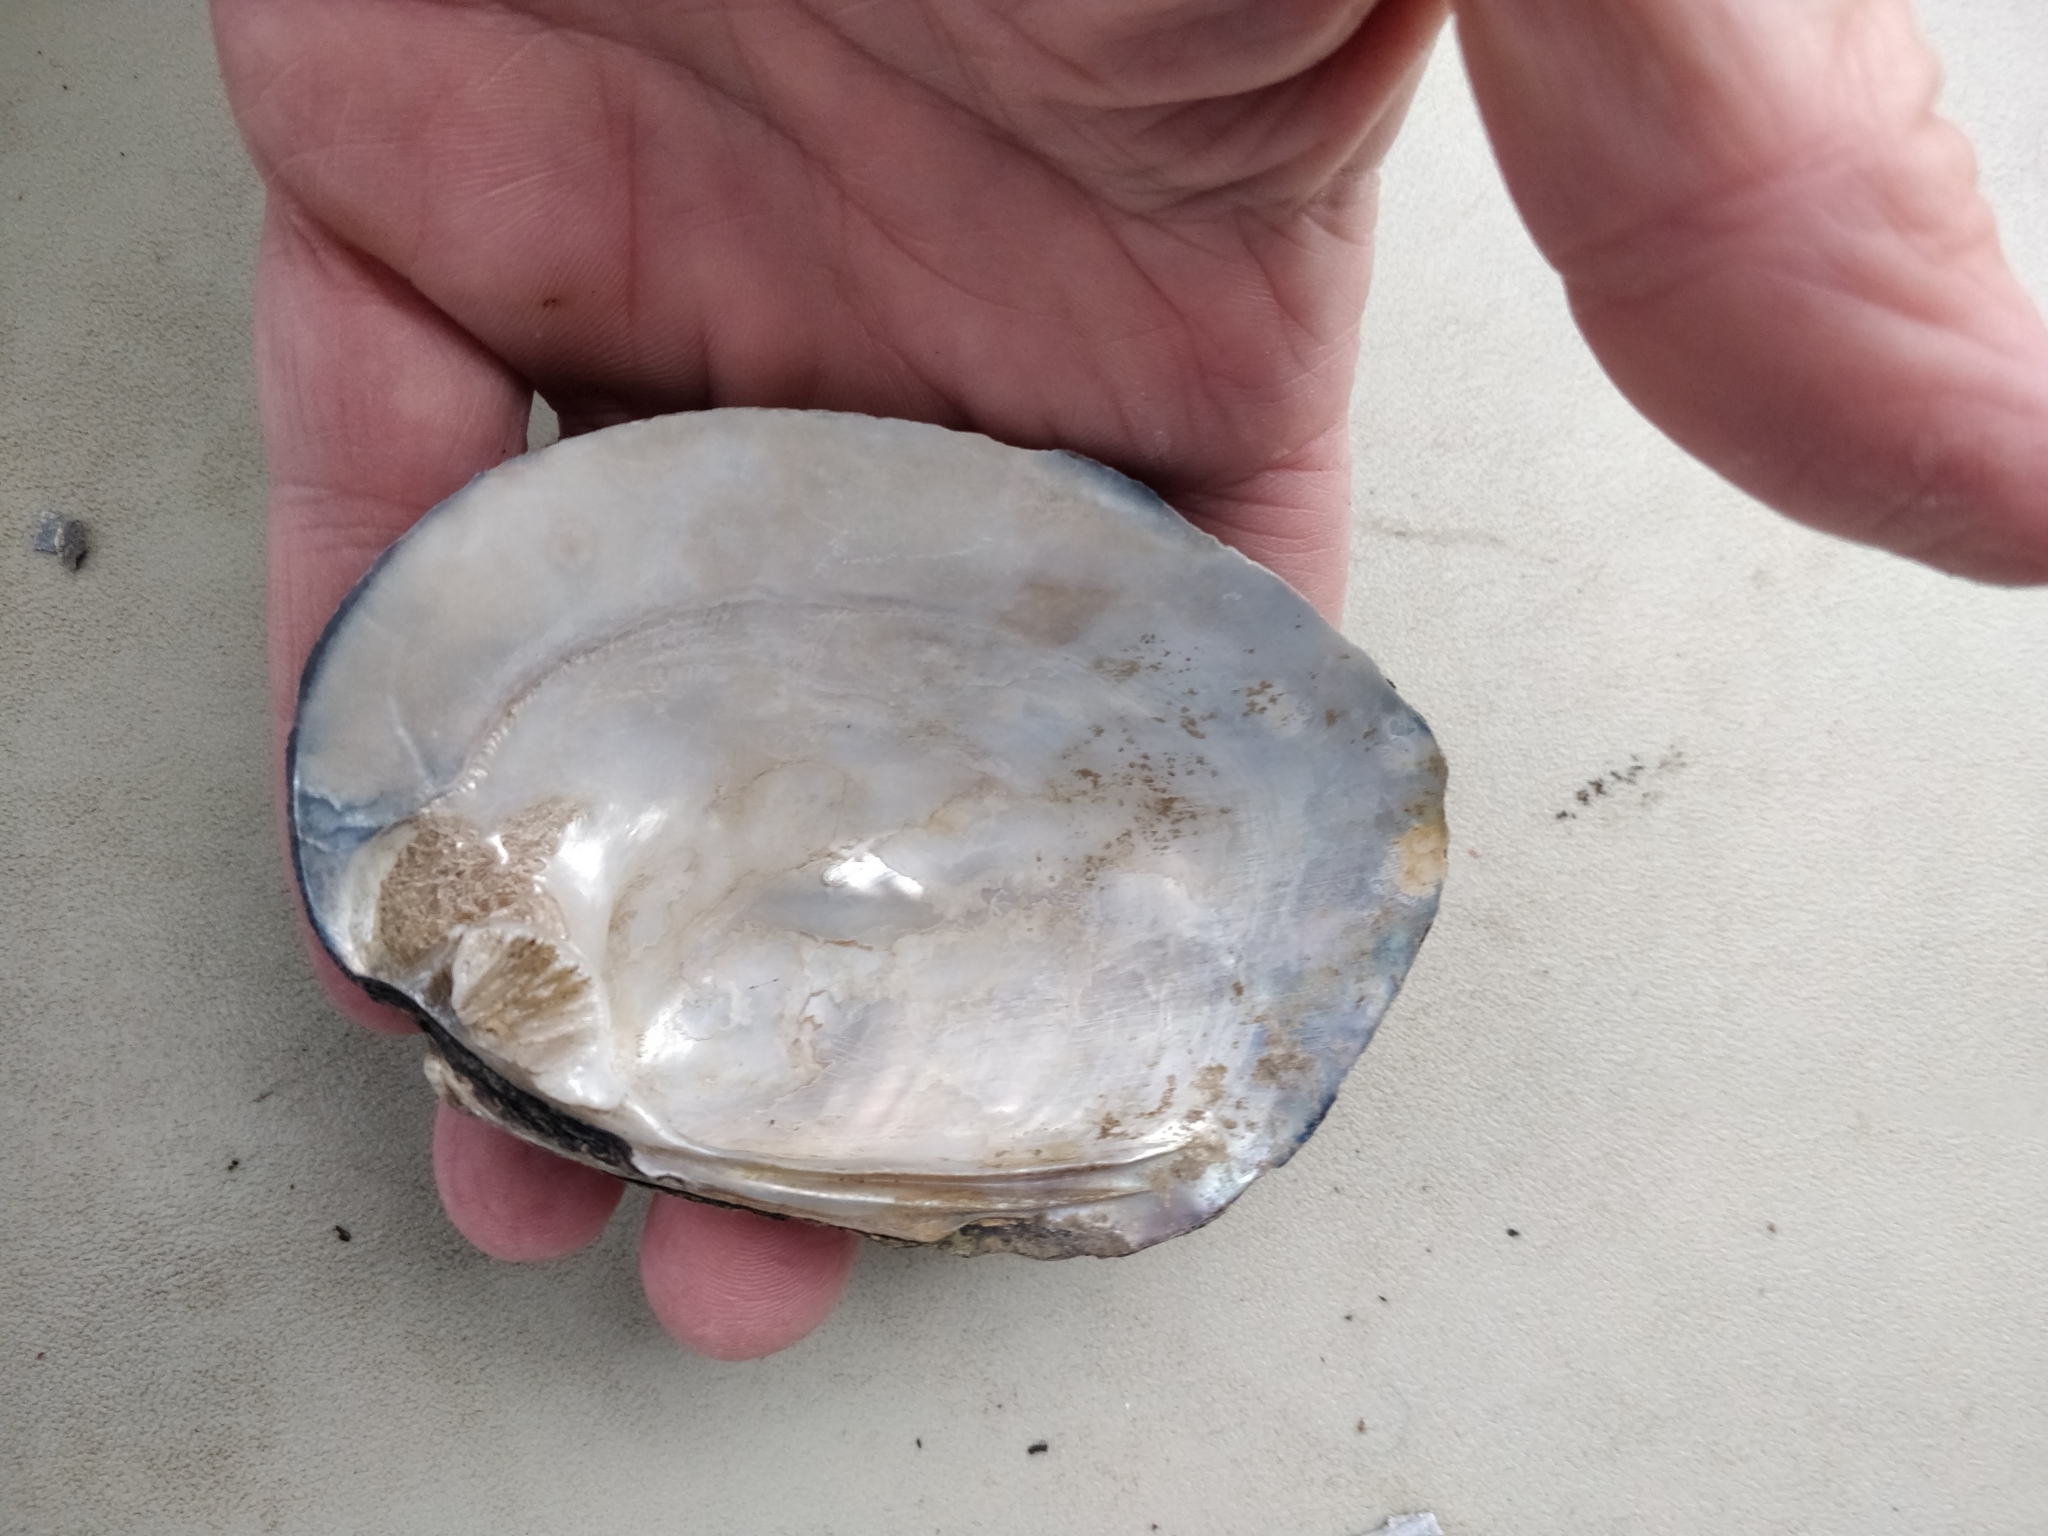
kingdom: Animalia
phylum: Mollusca
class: Bivalvia
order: Unionida
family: Unionidae
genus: Amblema
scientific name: Amblema plicata
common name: Threeridge
